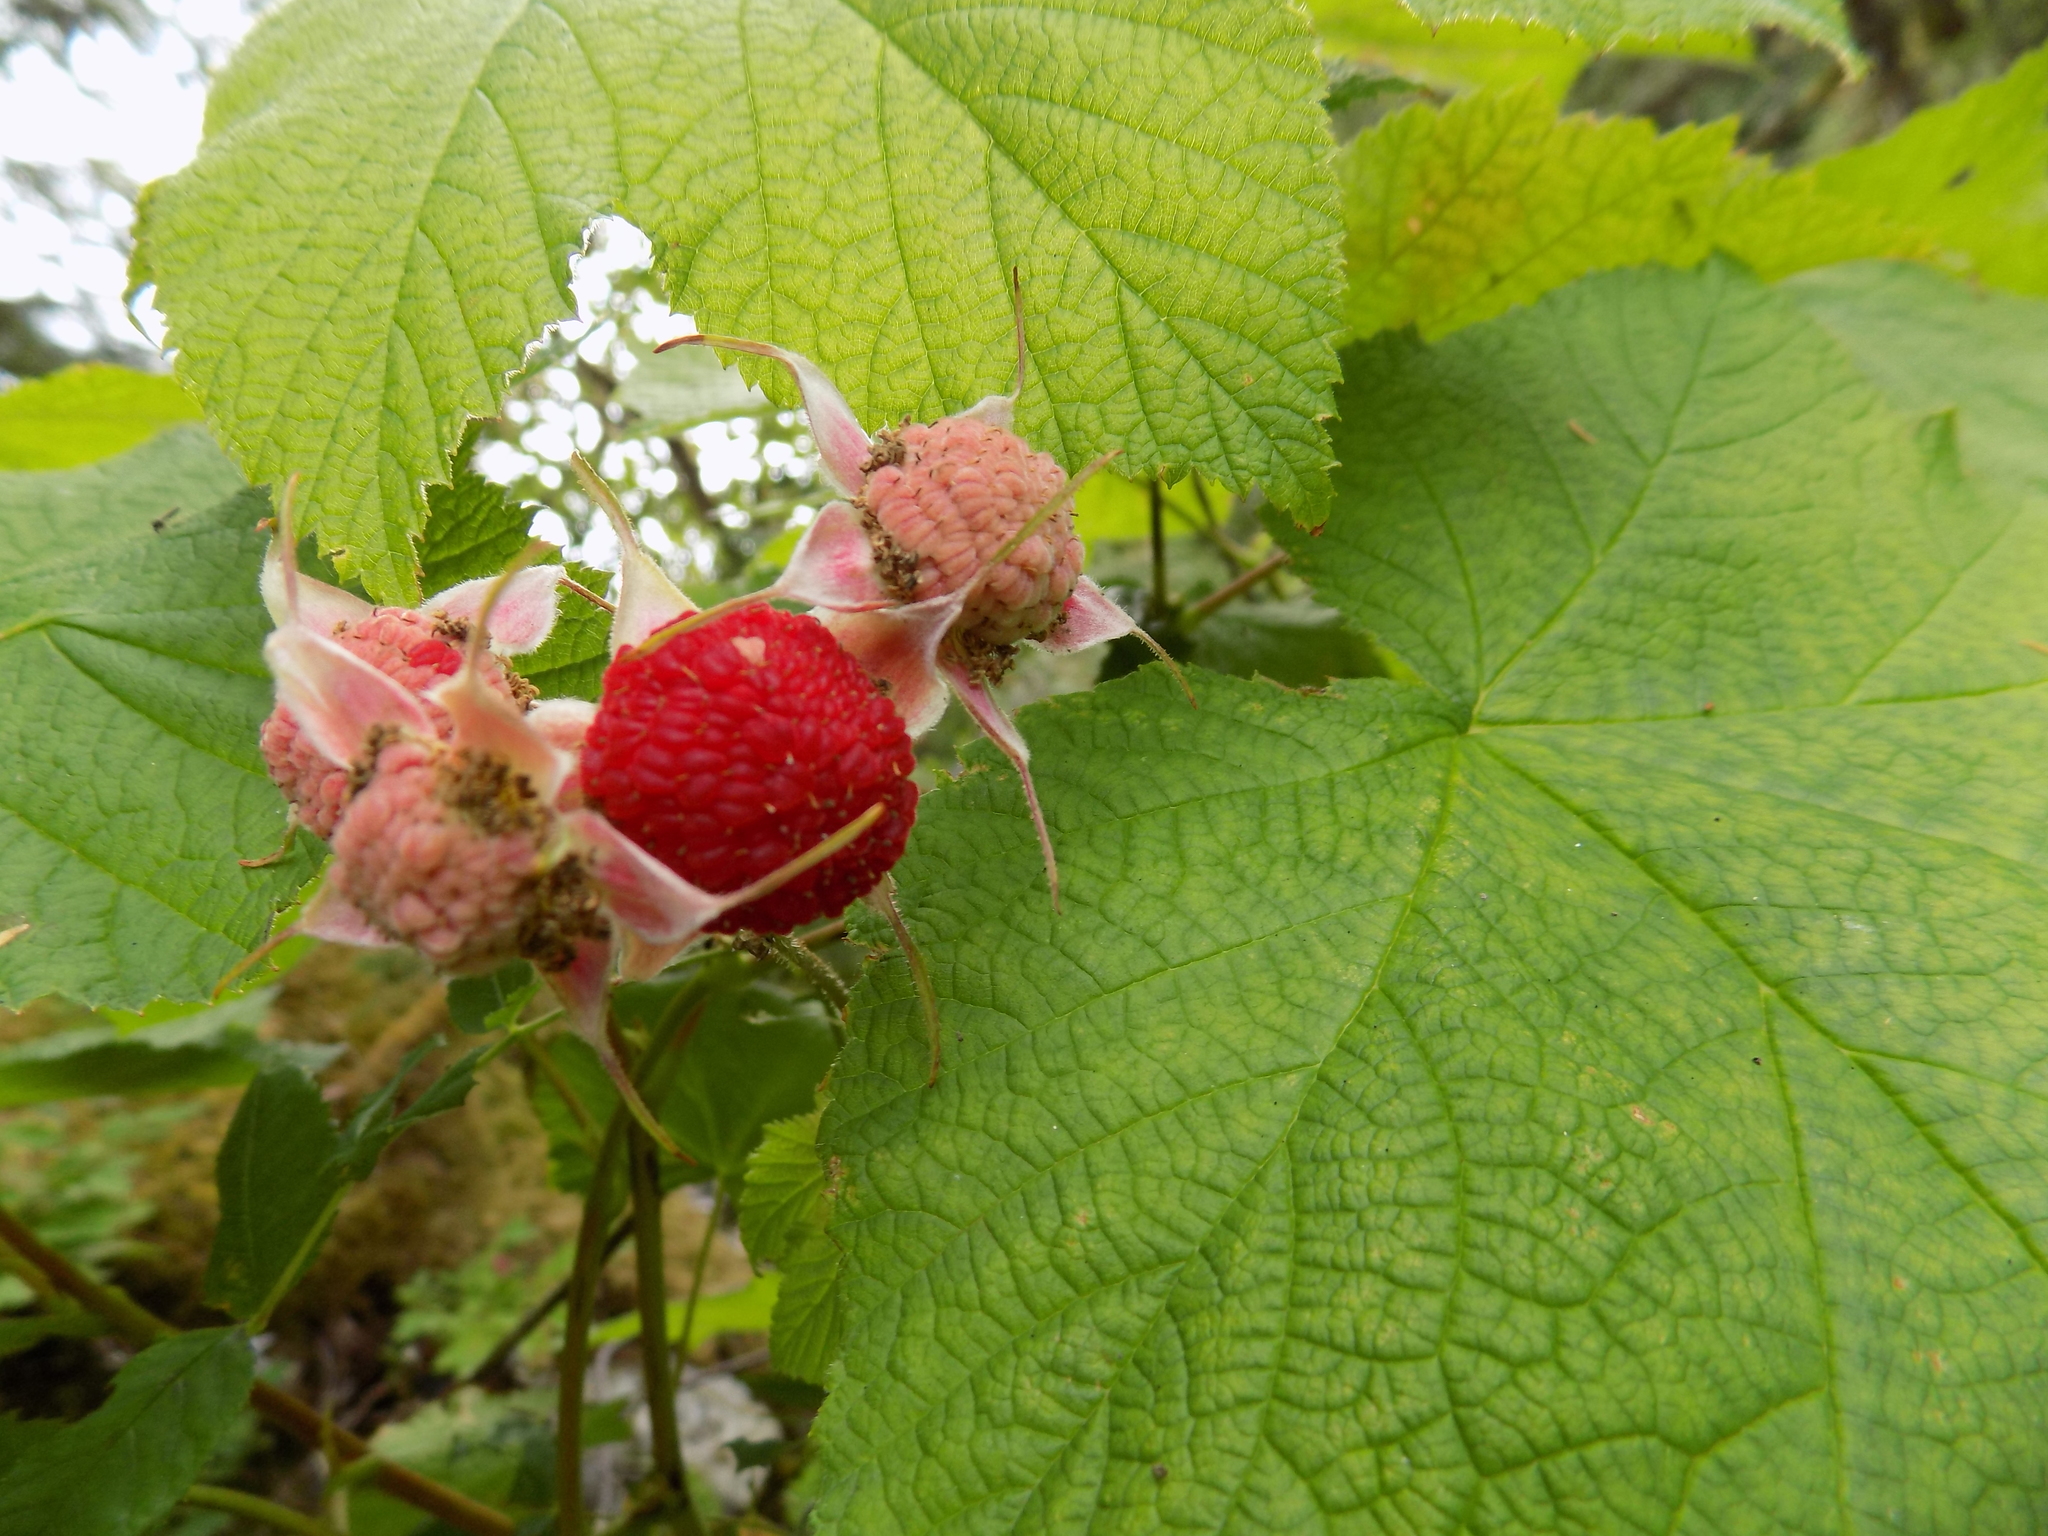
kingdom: Plantae
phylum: Tracheophyta
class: Magnoliopsida
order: Rosales
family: Rosaceae
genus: Rubus
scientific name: Rubus parviflorus
